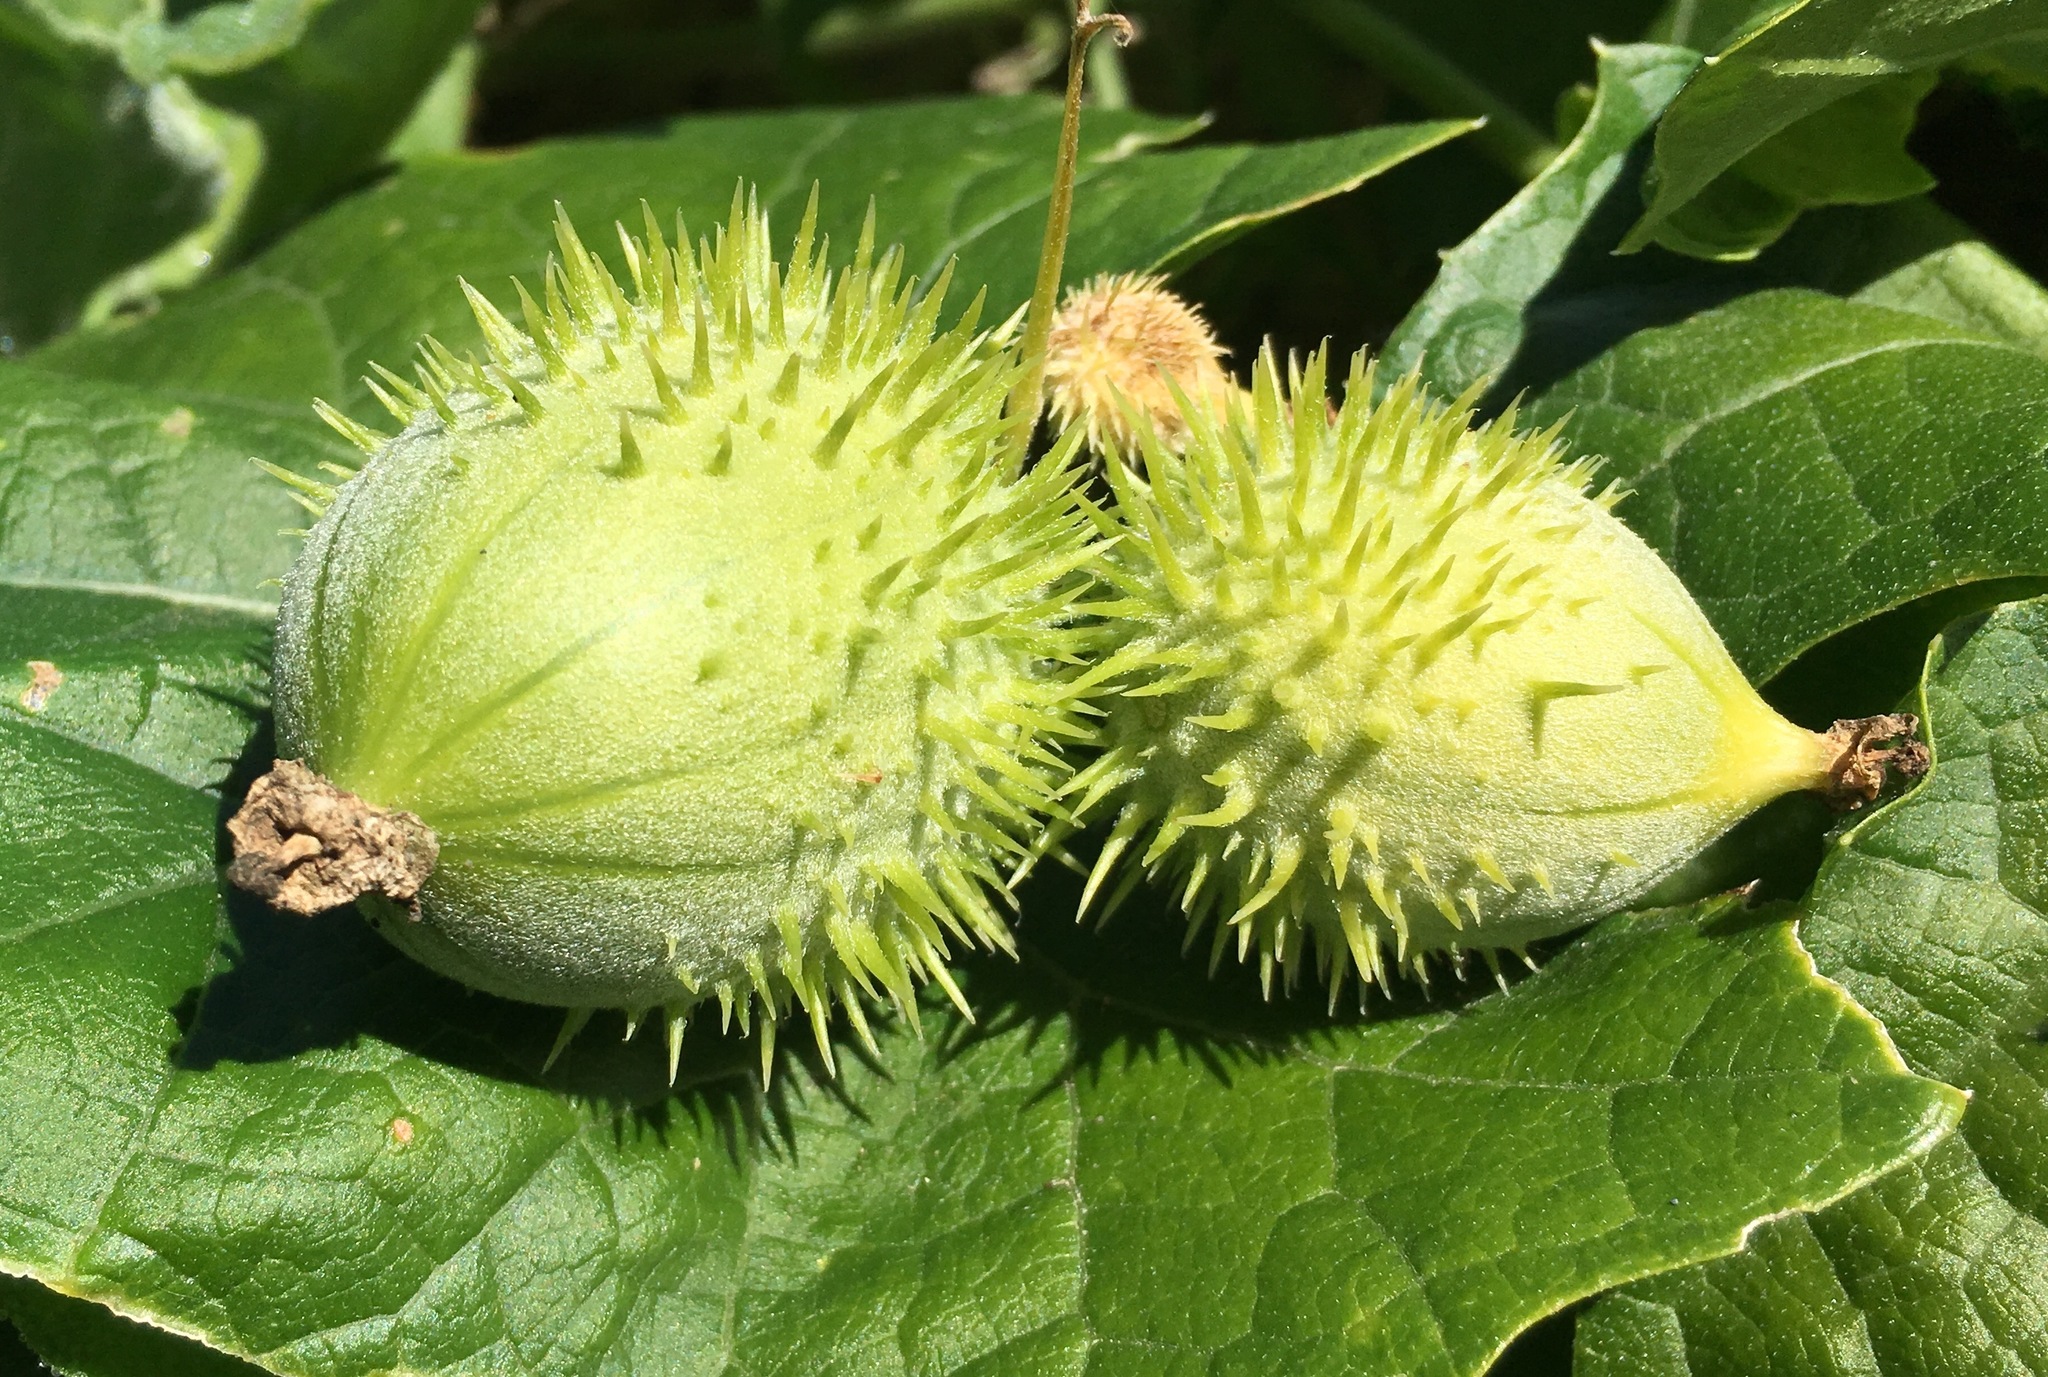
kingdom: Plantae
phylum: Tracheophyta
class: Magnoliopsida
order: Cucurbitales
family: Cucurbitaceae
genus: Marah
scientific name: Marah macrocarpa
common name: Cucamonga manroot
